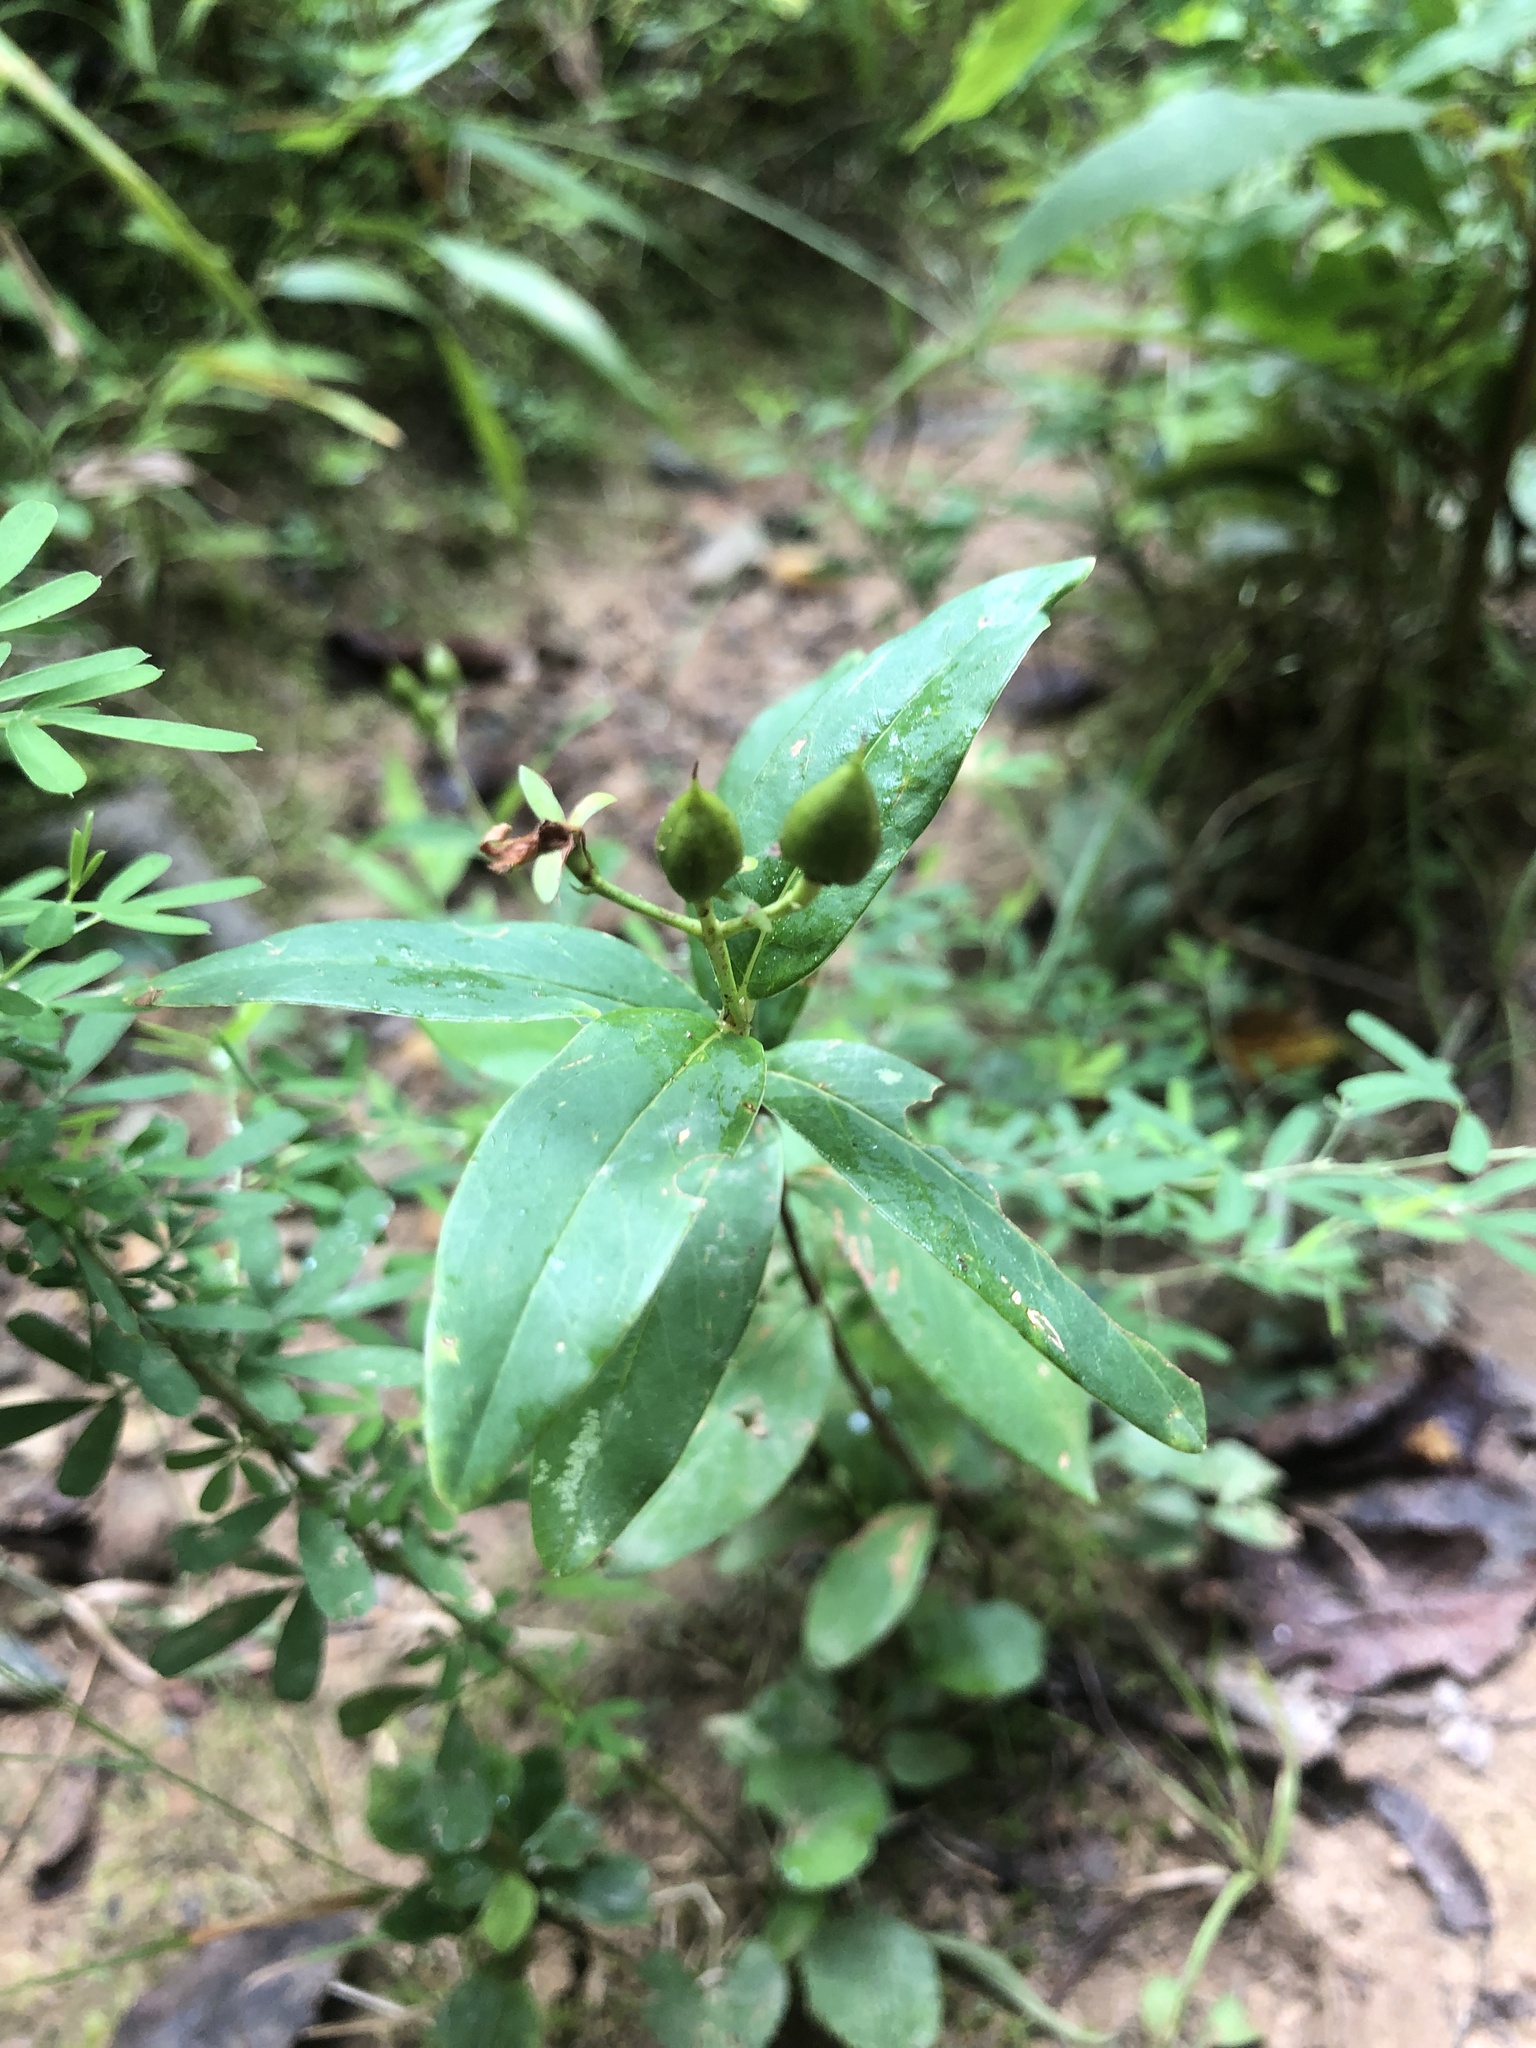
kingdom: Plantae
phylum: Tracheophyta
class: Magnoliopsida
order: Malpighiales
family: Hypericaceae
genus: Hypericum
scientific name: Hypericum nudiflorum
